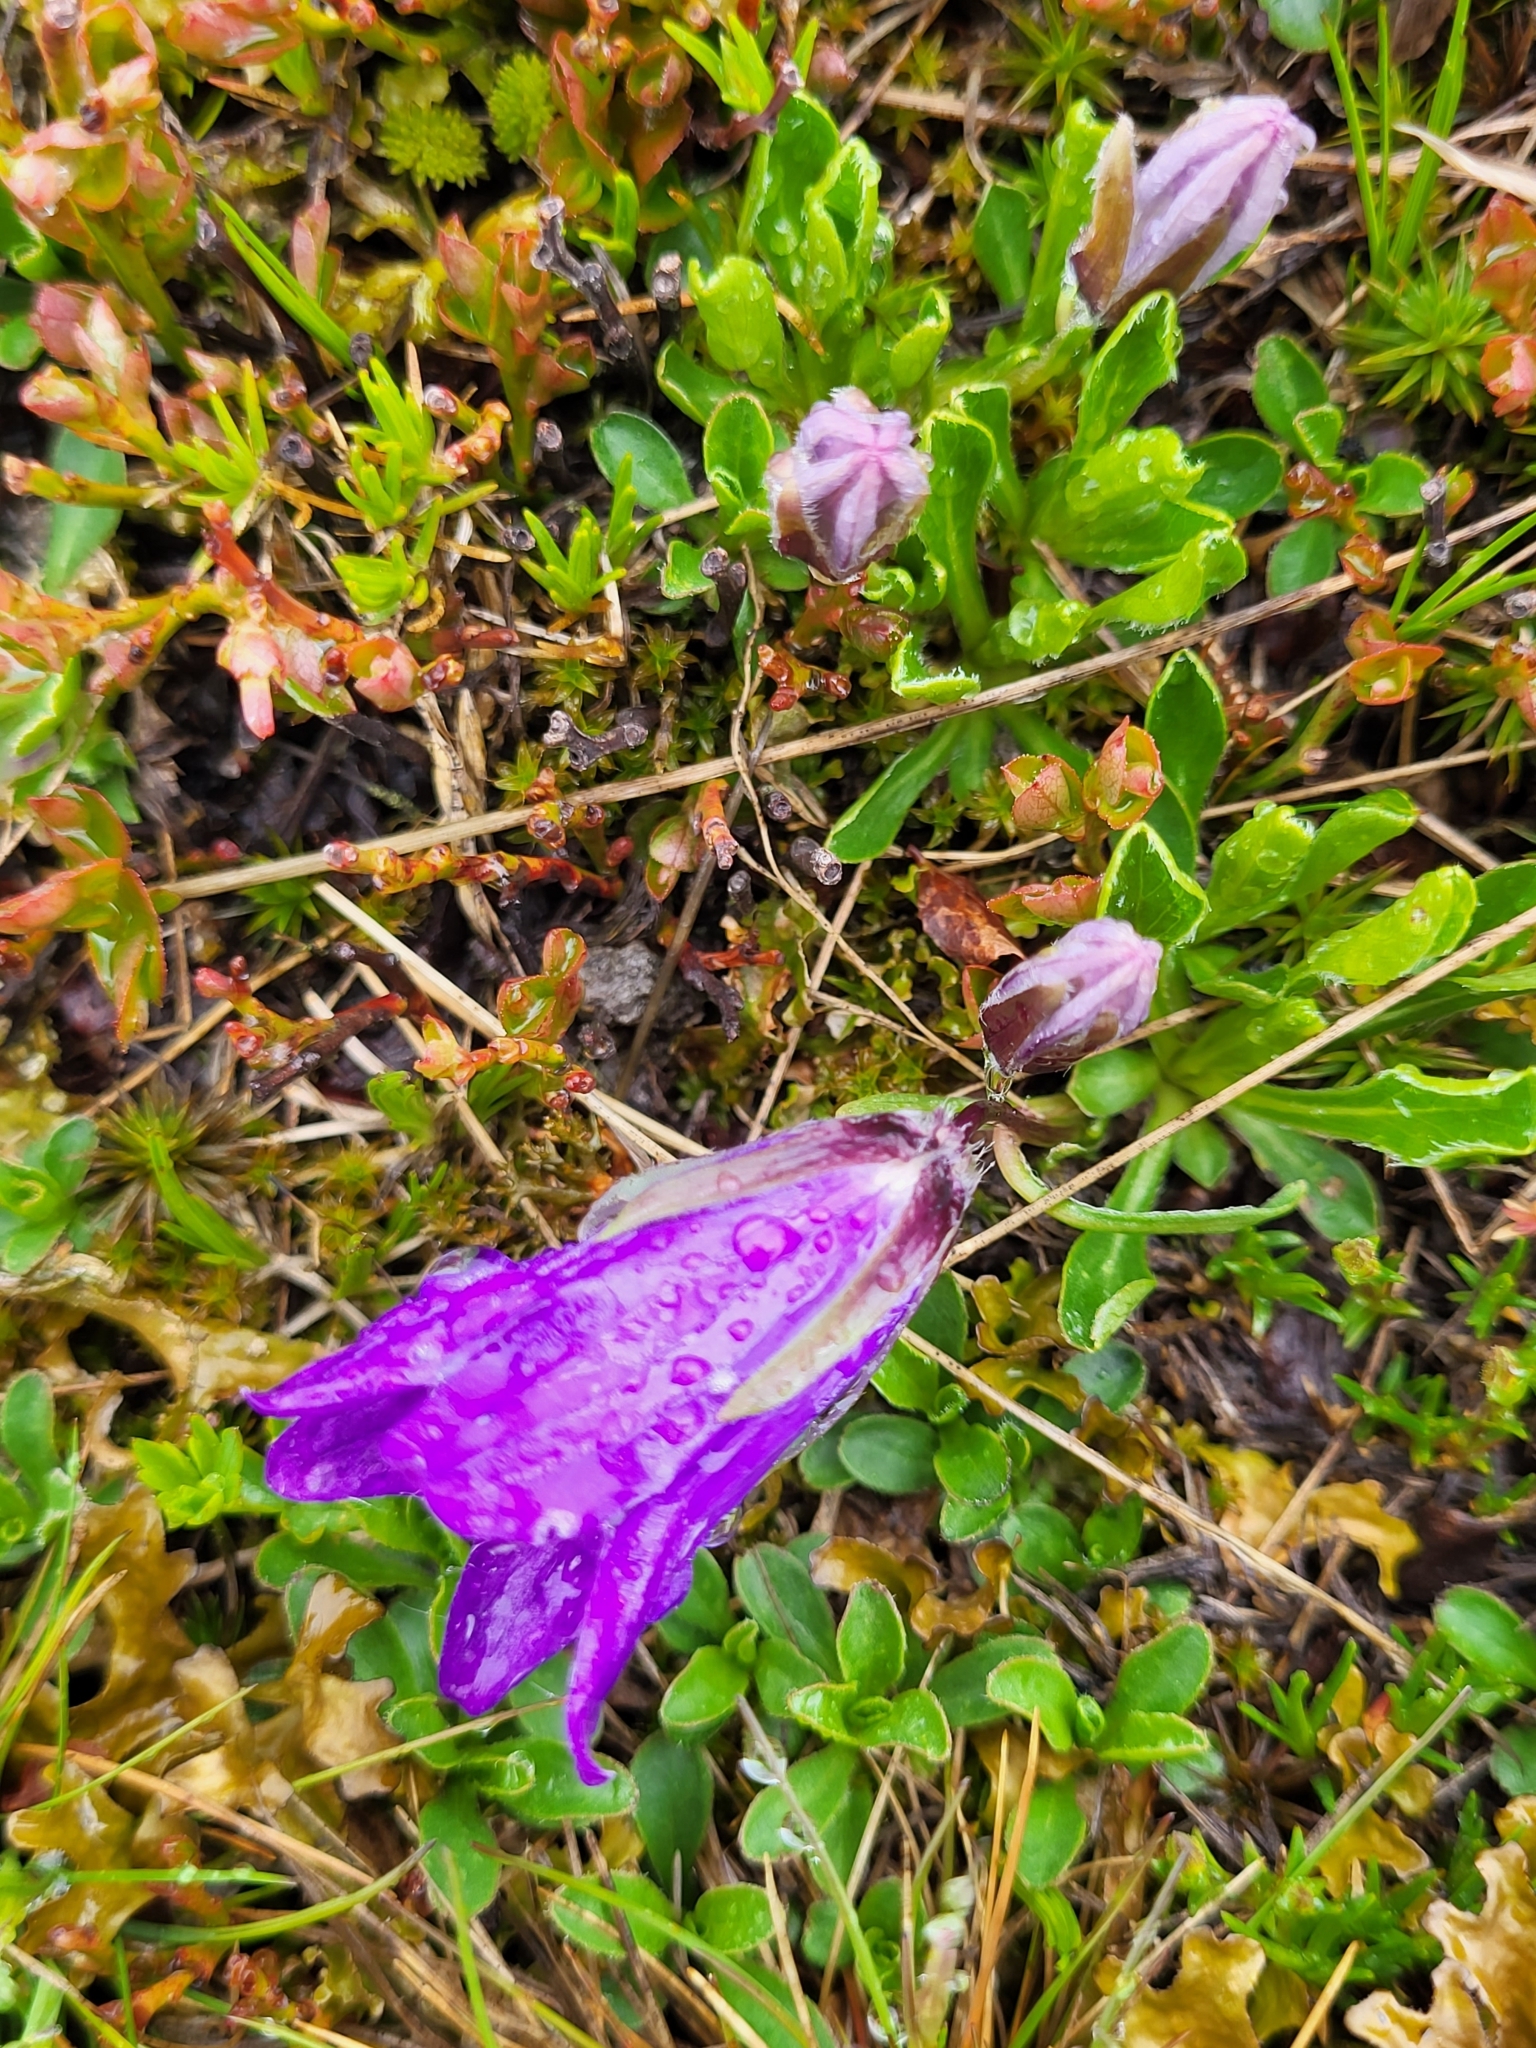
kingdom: Plantae
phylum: Tracheophyta
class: Magnoliopsida
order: Asterales
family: Campanulaceae
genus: Campanula
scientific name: Campanula tridentata
